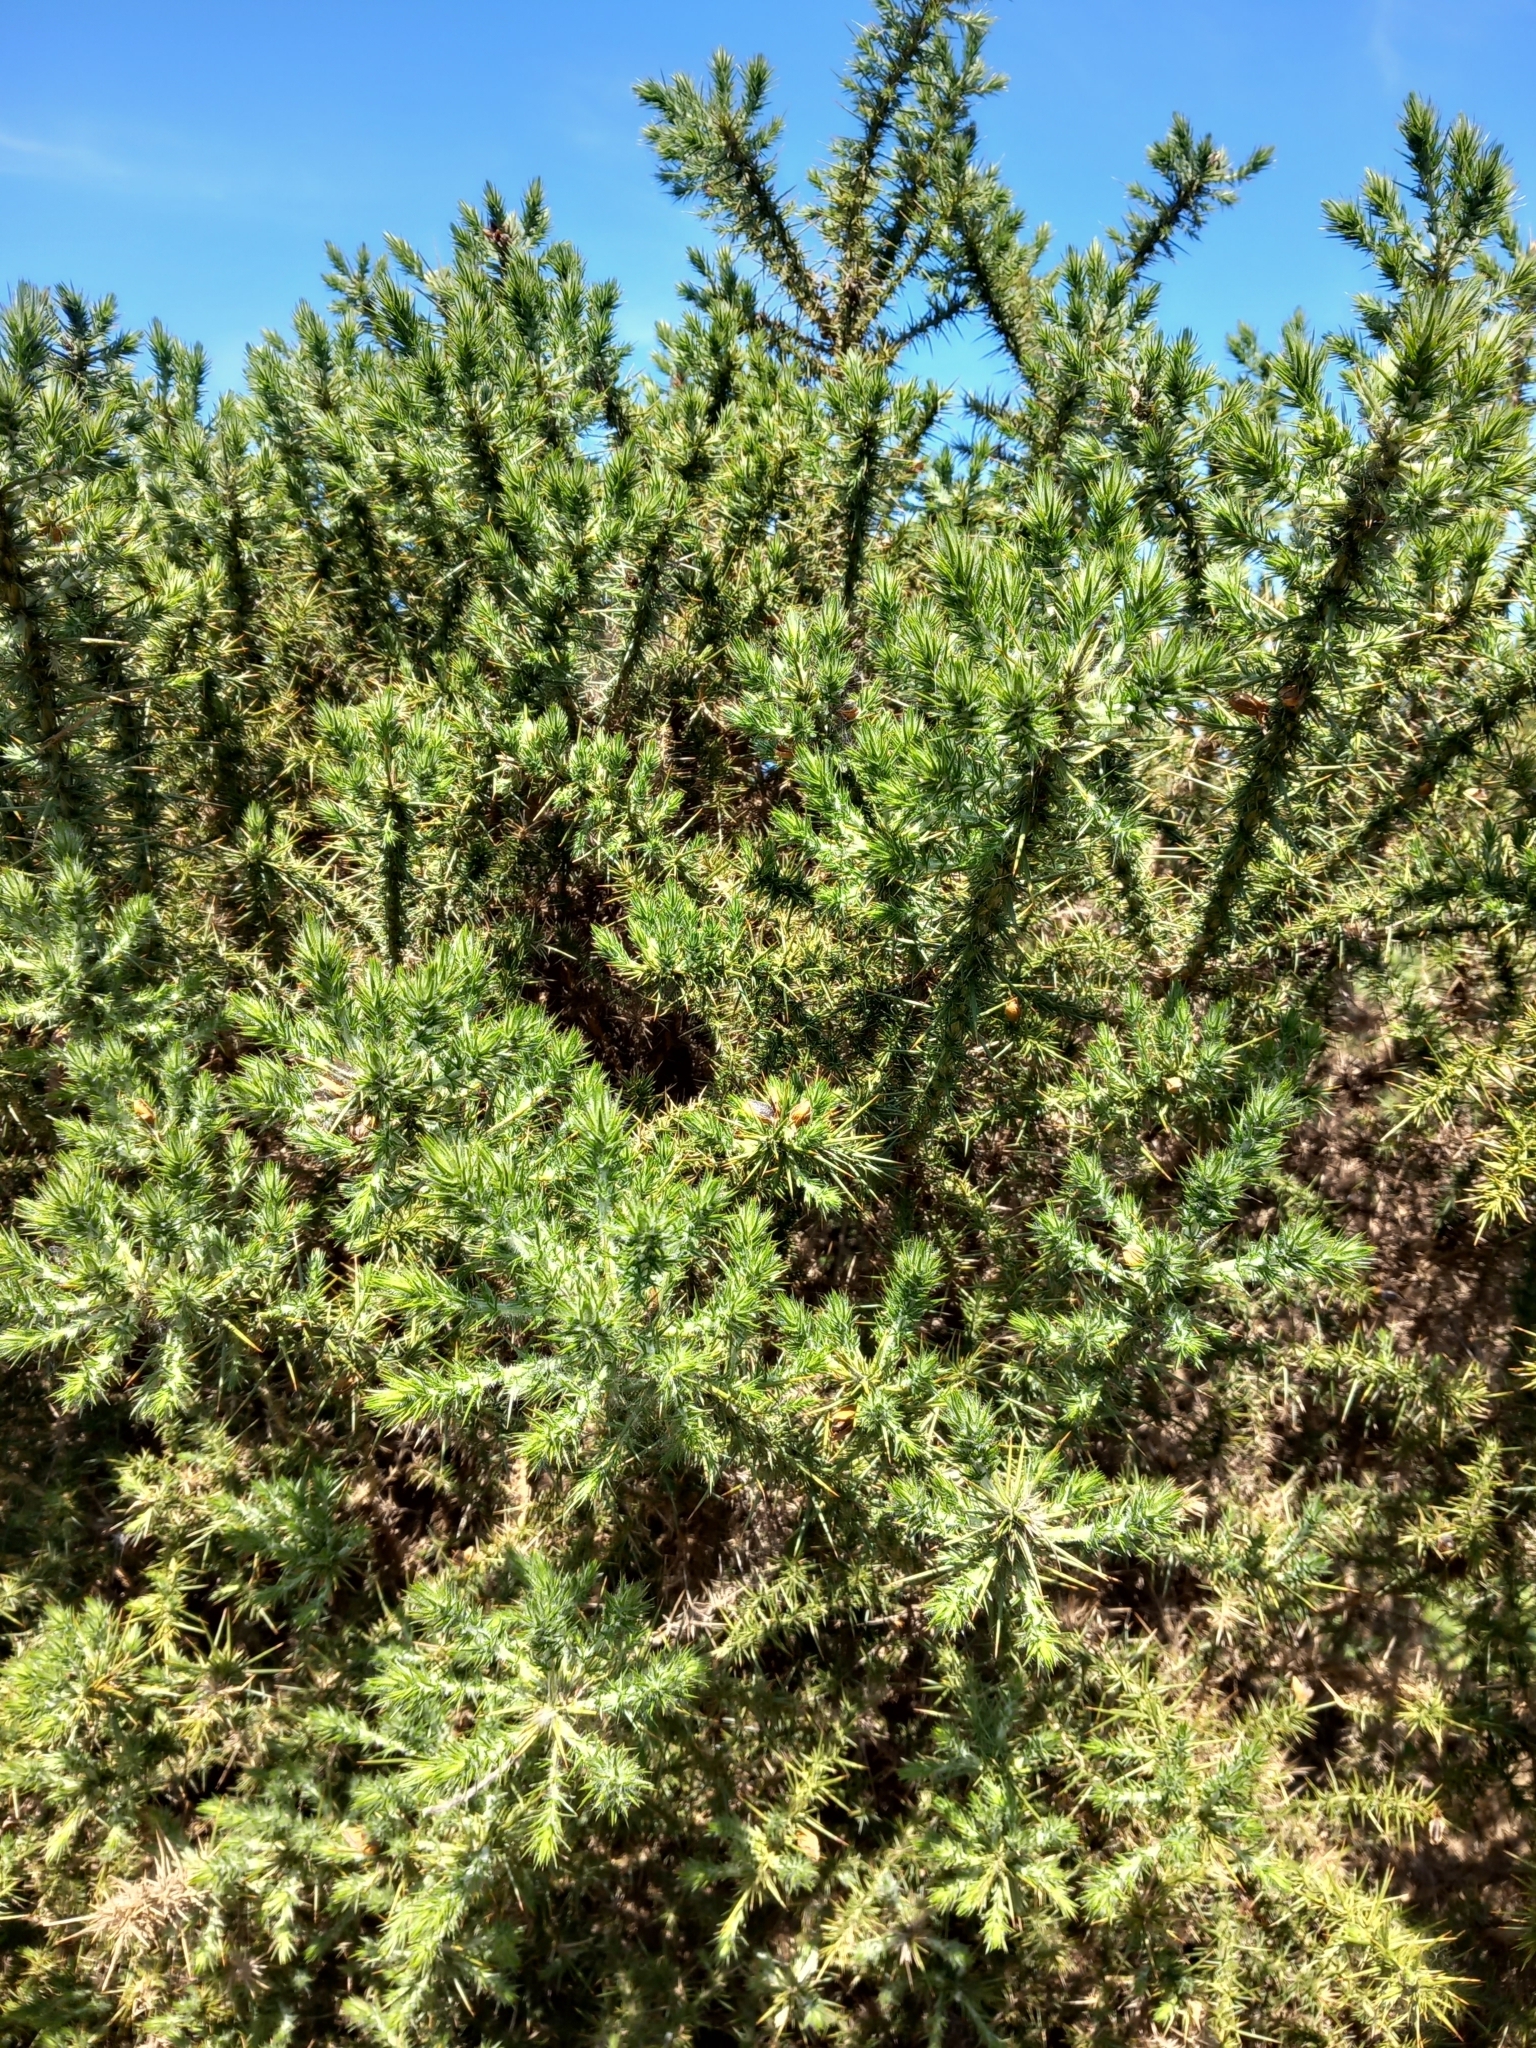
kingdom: Plantae
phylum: Tracheophyta
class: Magnoliopsida
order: Fabales
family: Fabaceae
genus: Ulex
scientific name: Ulex europaeus
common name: Common gorse
